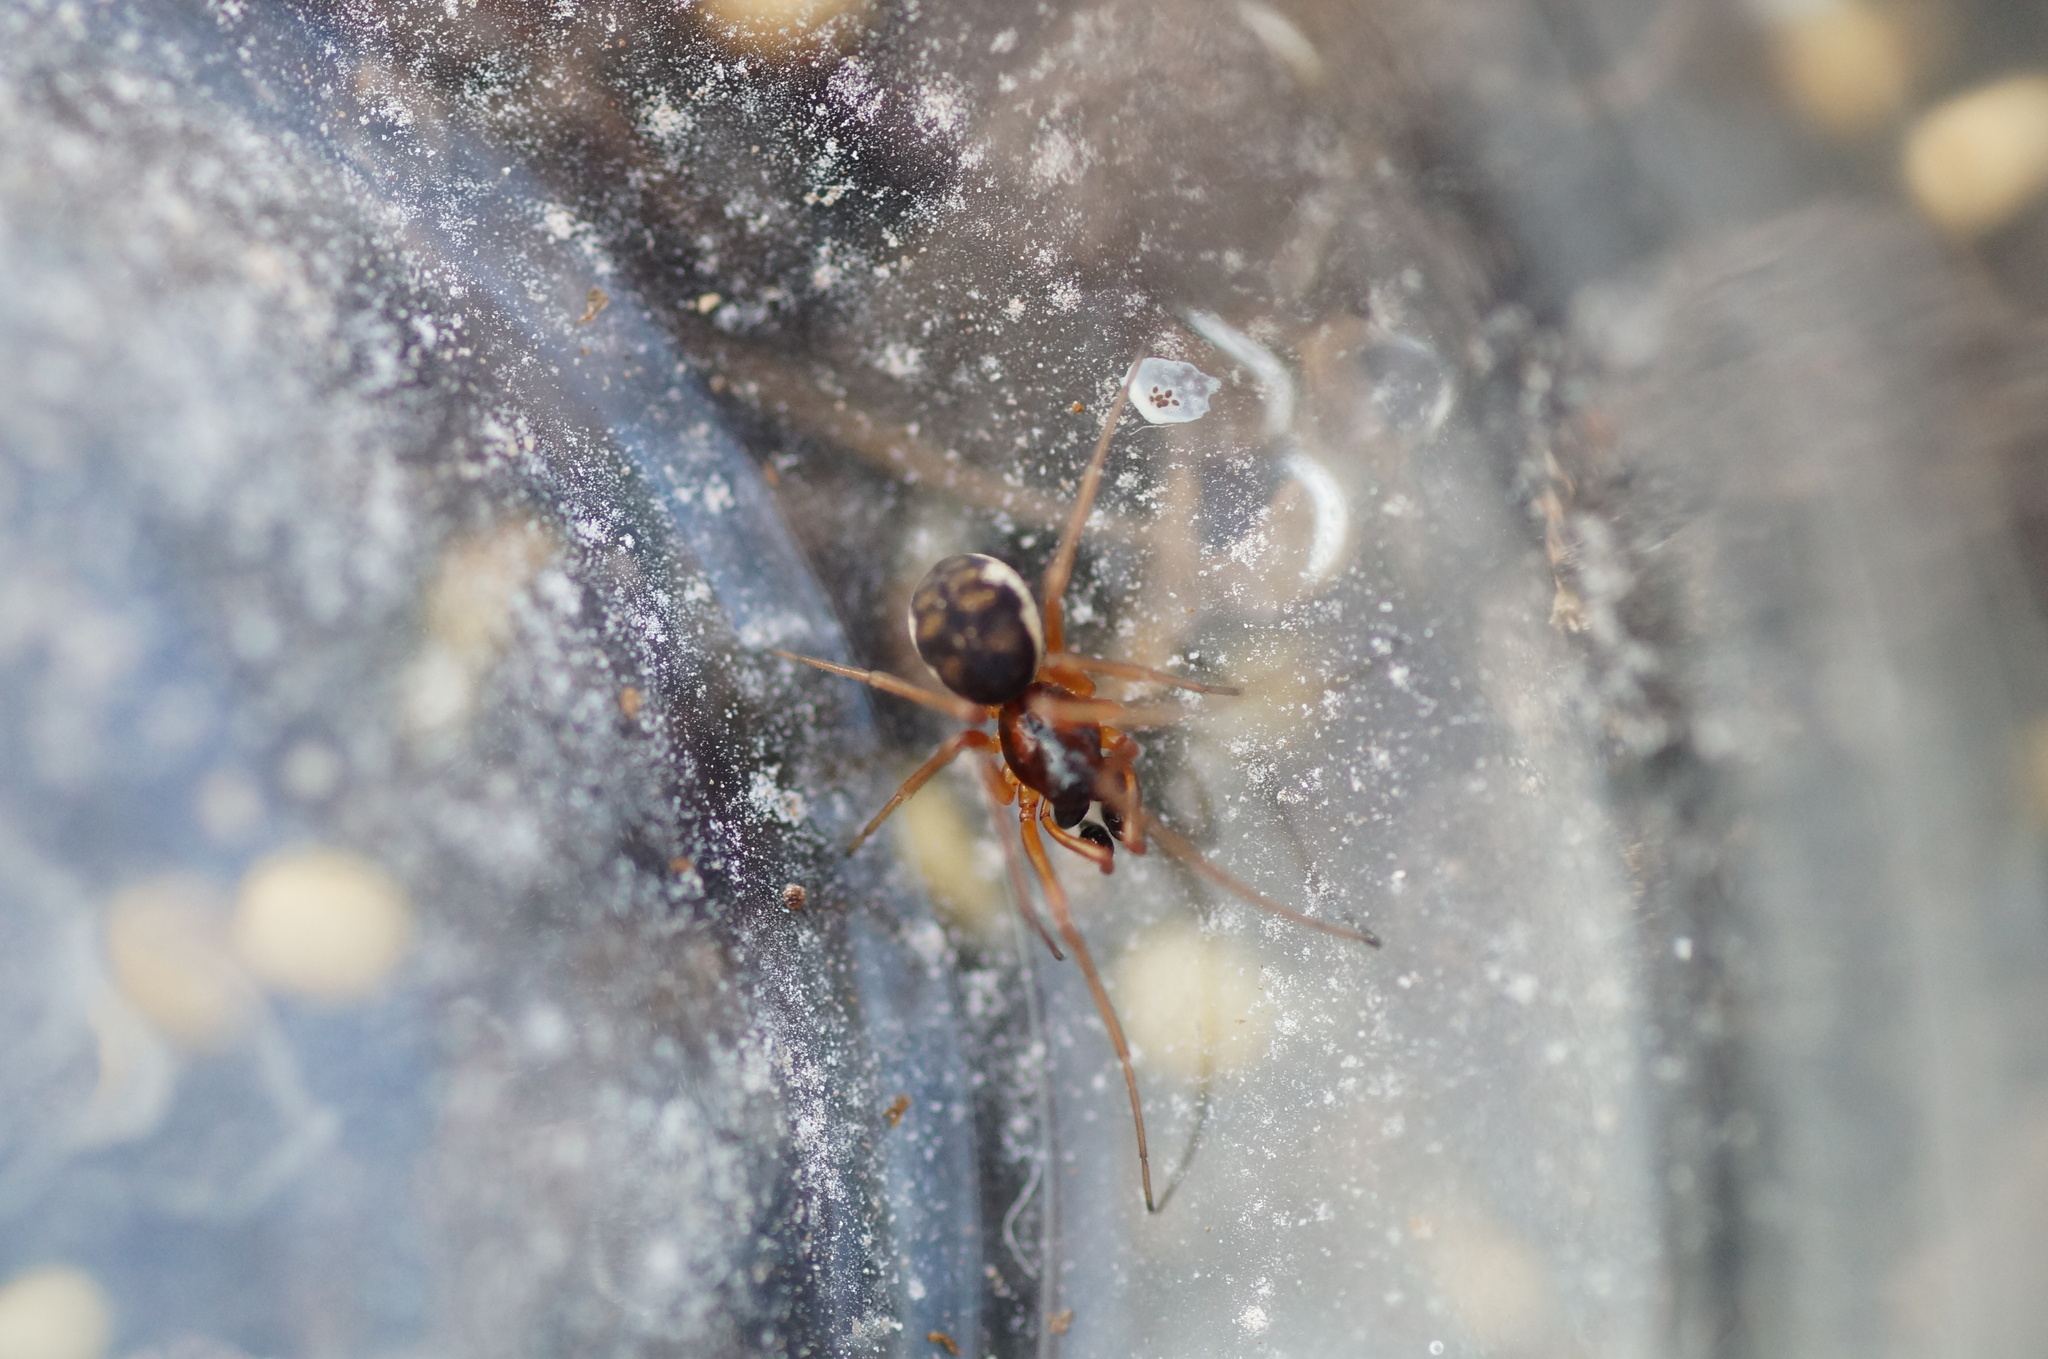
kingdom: Animalia
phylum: Arthropoda
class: Arachnida
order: Araneae
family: Tetragnathidae
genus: Pachygnatha
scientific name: Pachygnatha listeri
